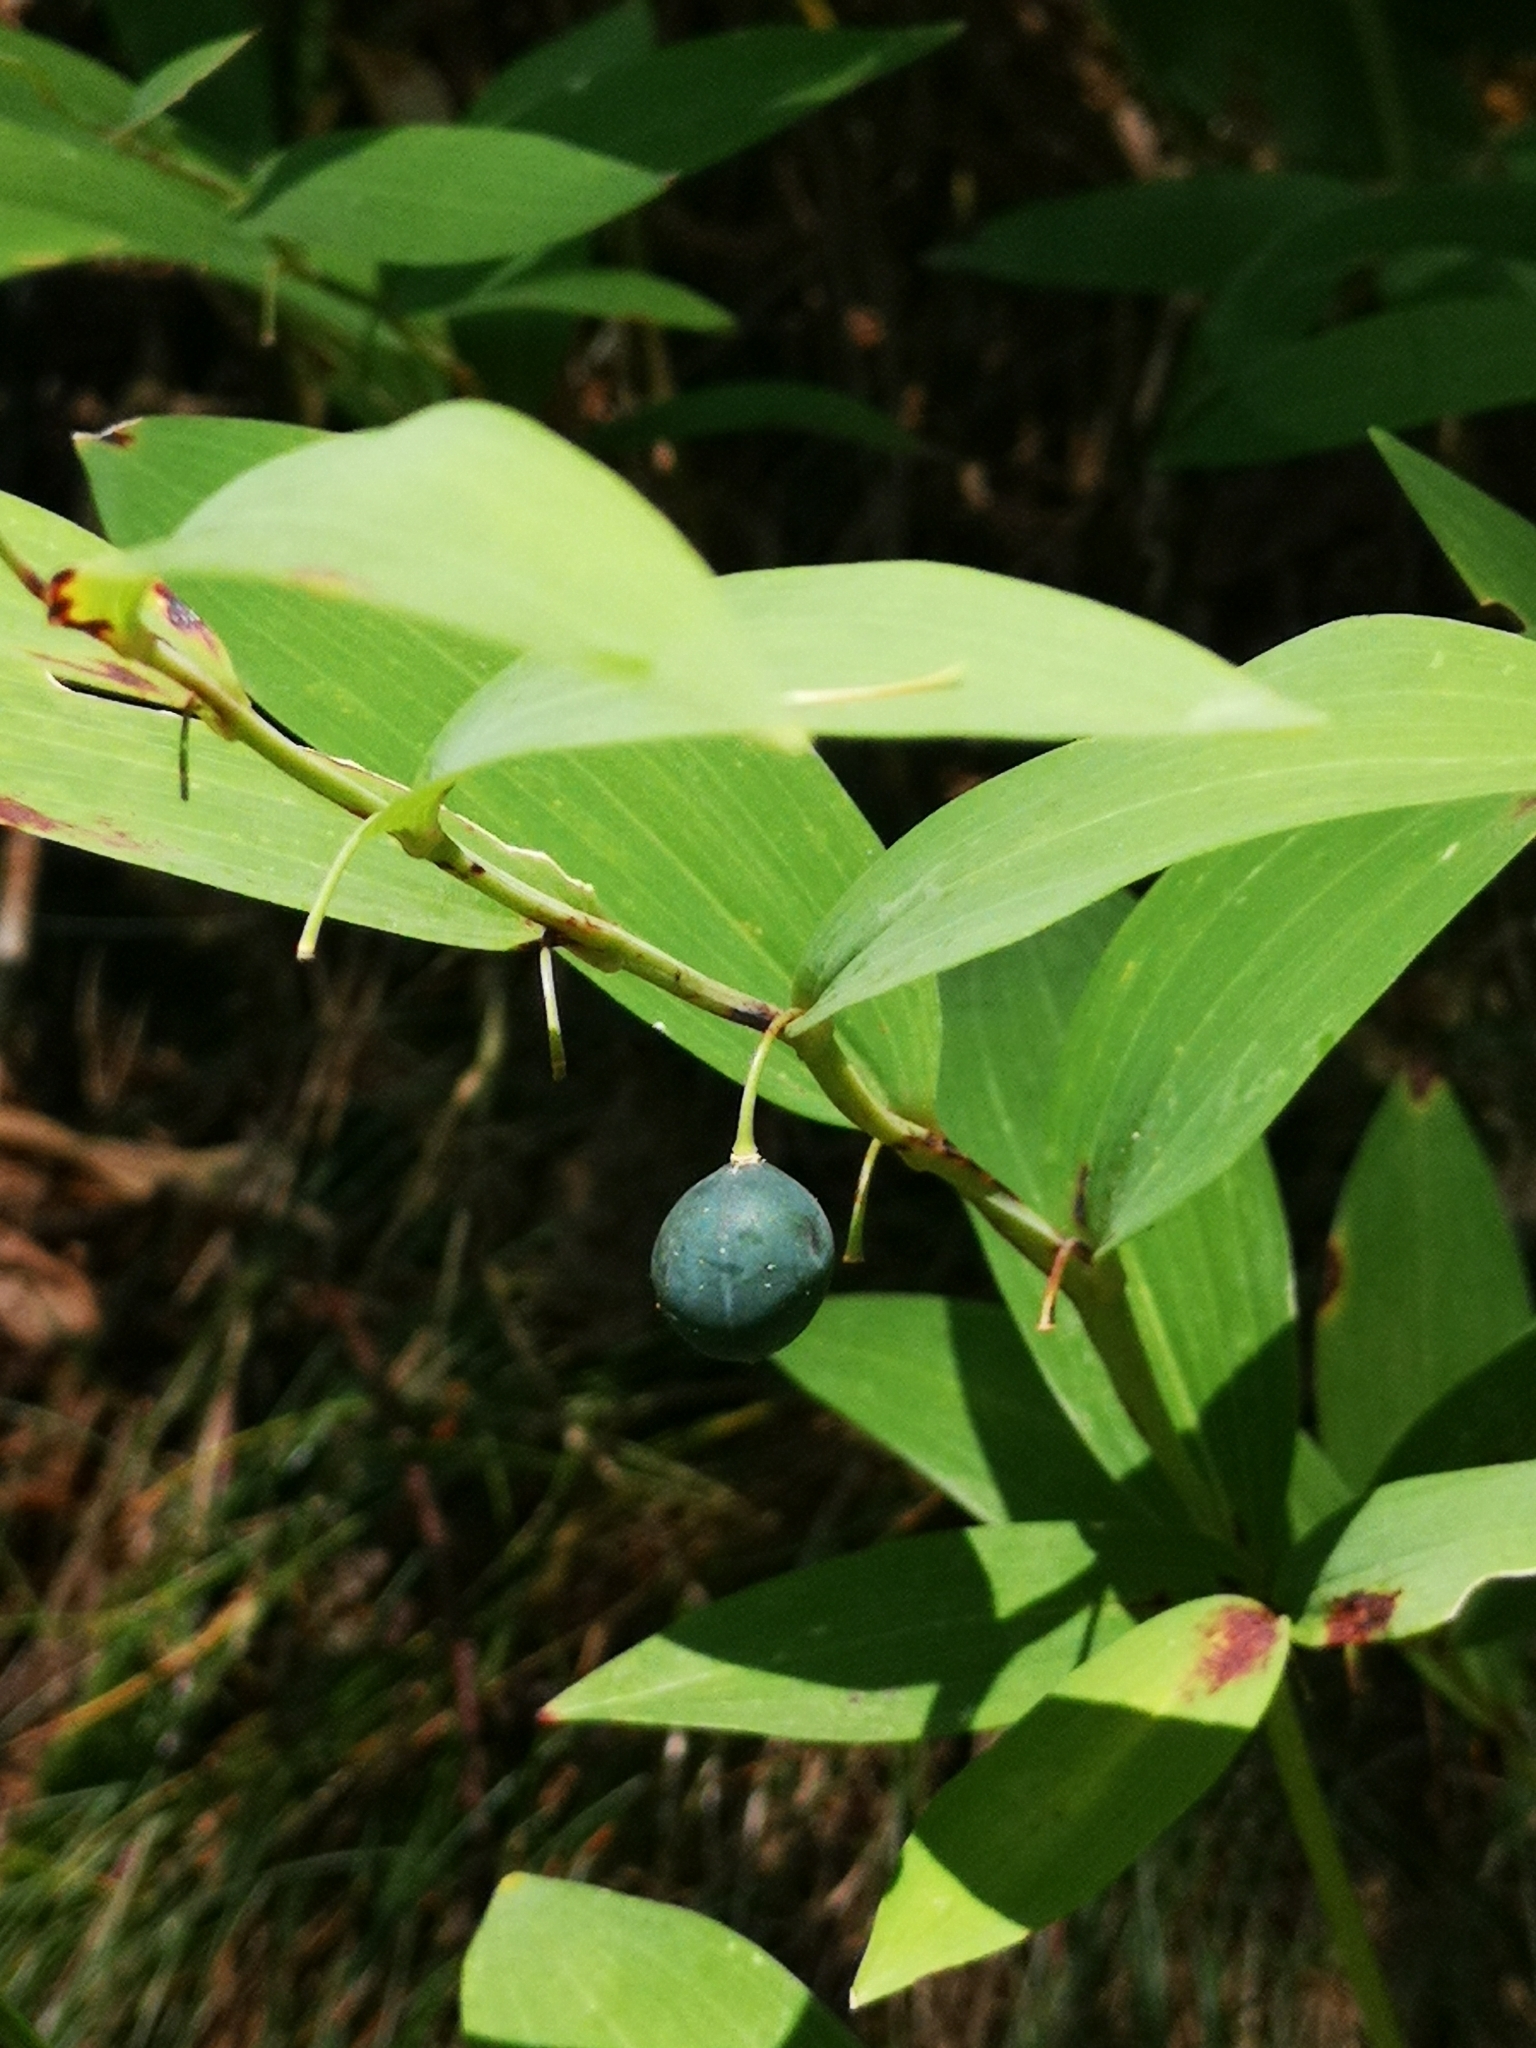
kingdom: Plantae
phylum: Tracheophyta
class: Liliopsida
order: Asparagales
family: Asparagaceae
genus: Polygonatum
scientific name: Polygonatum odoratum
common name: Angular solomon's-seal
